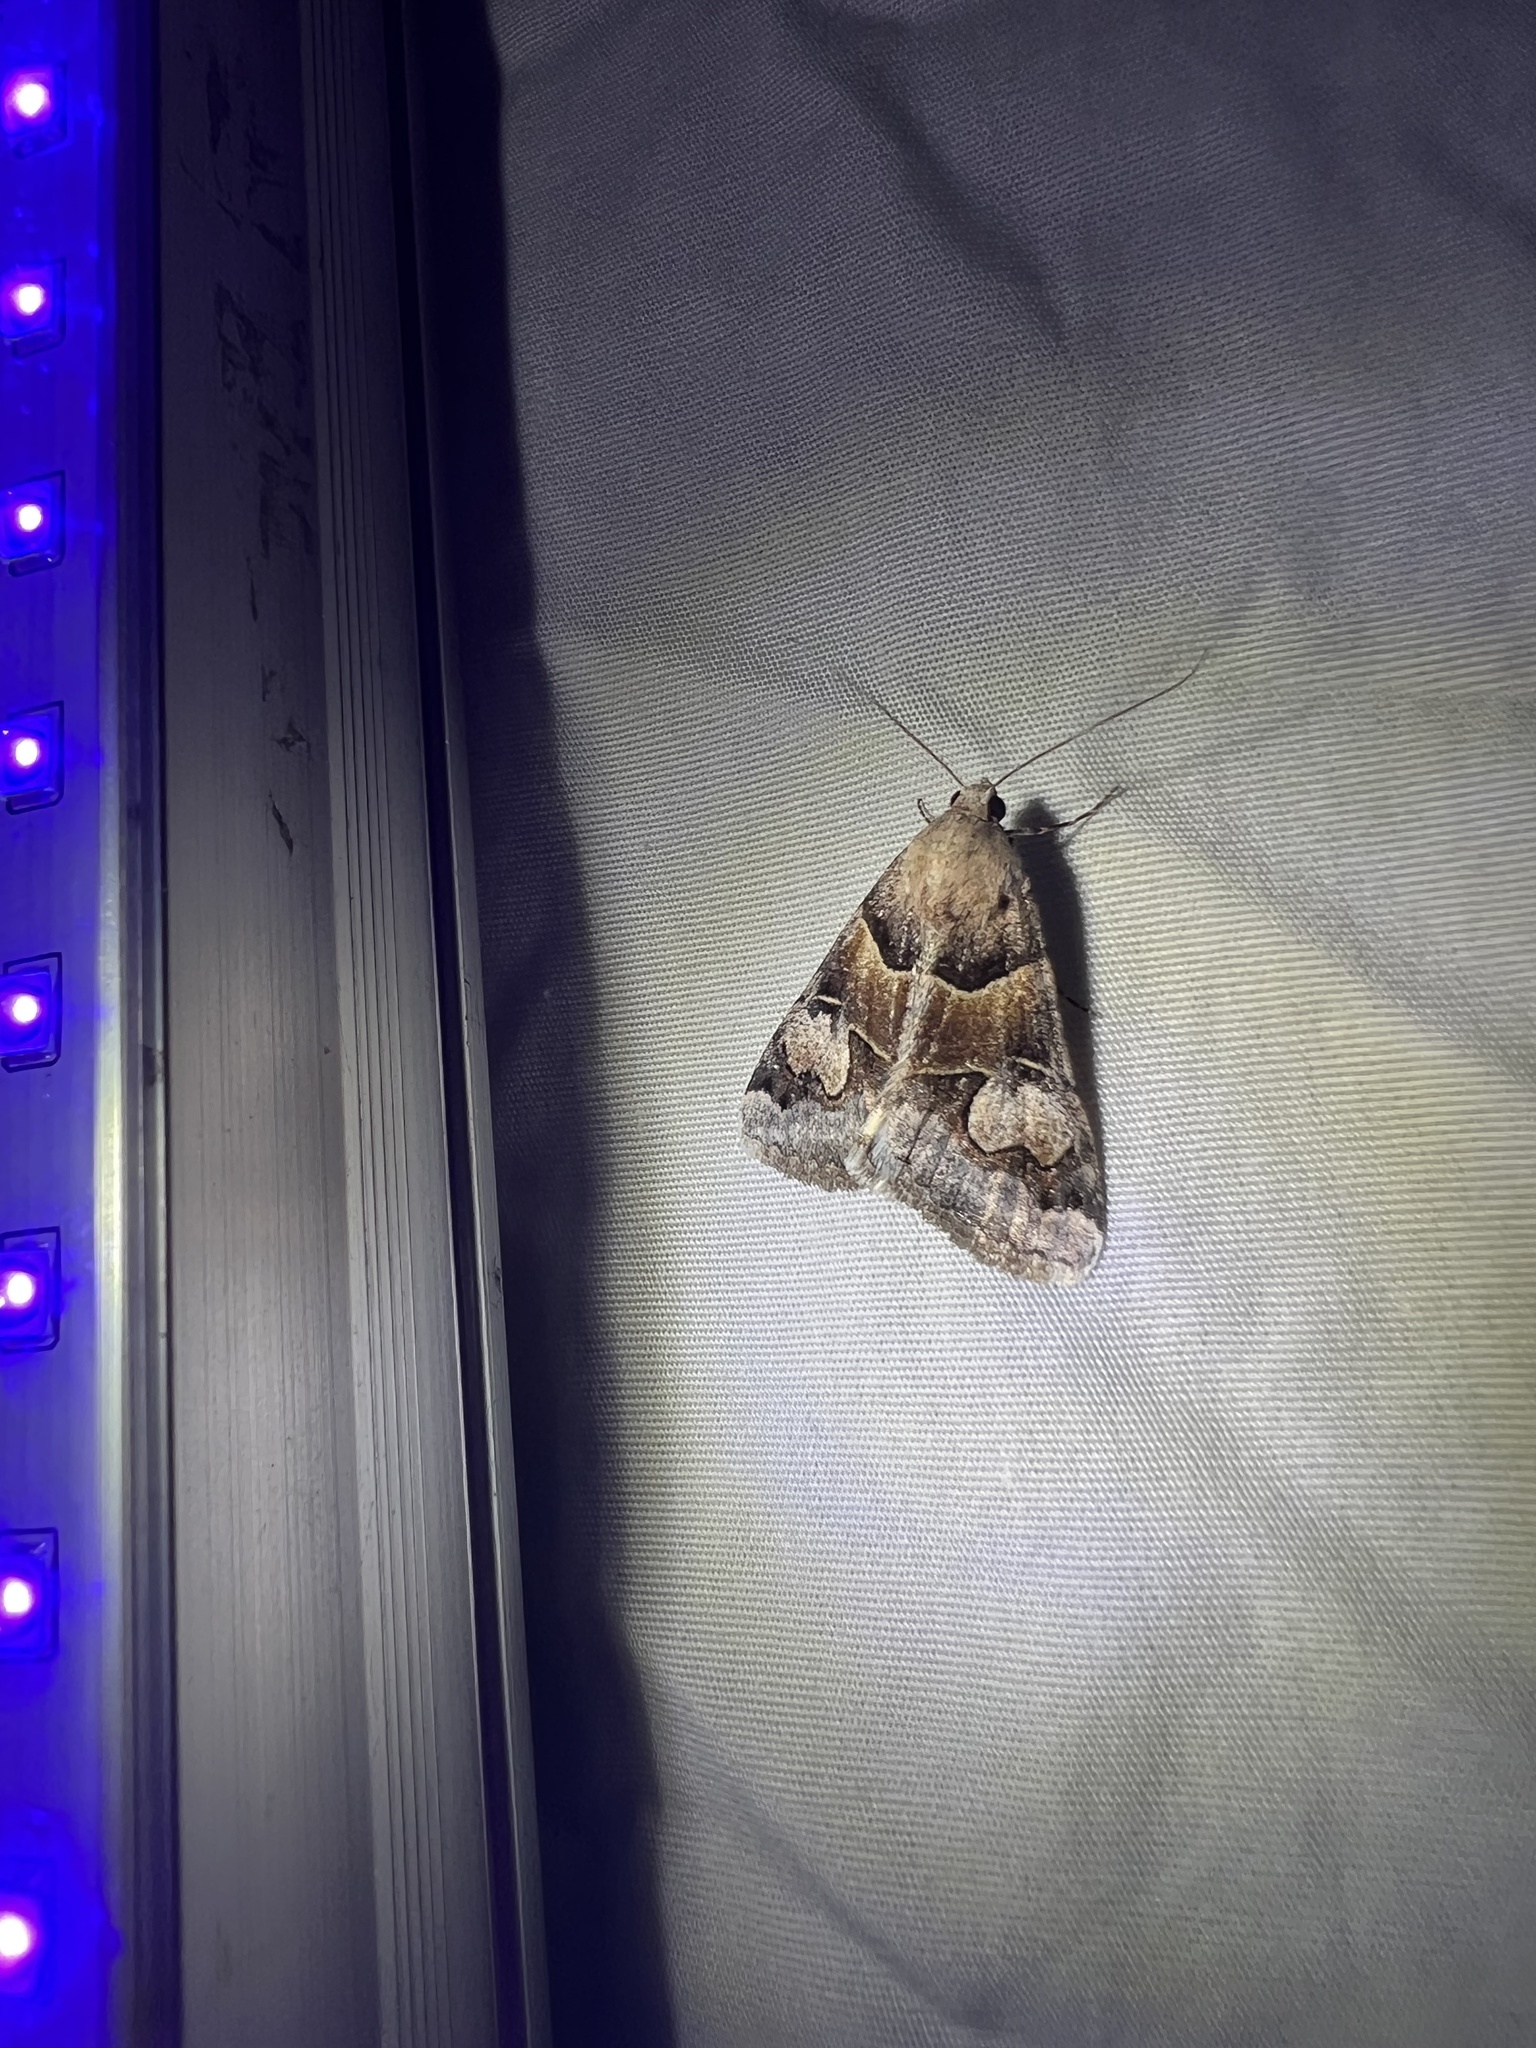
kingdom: Animalia
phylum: Arthropoda
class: Insecta
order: Lepidoptera
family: Erebidae
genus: Drasteria
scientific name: Drasteria pallescens
